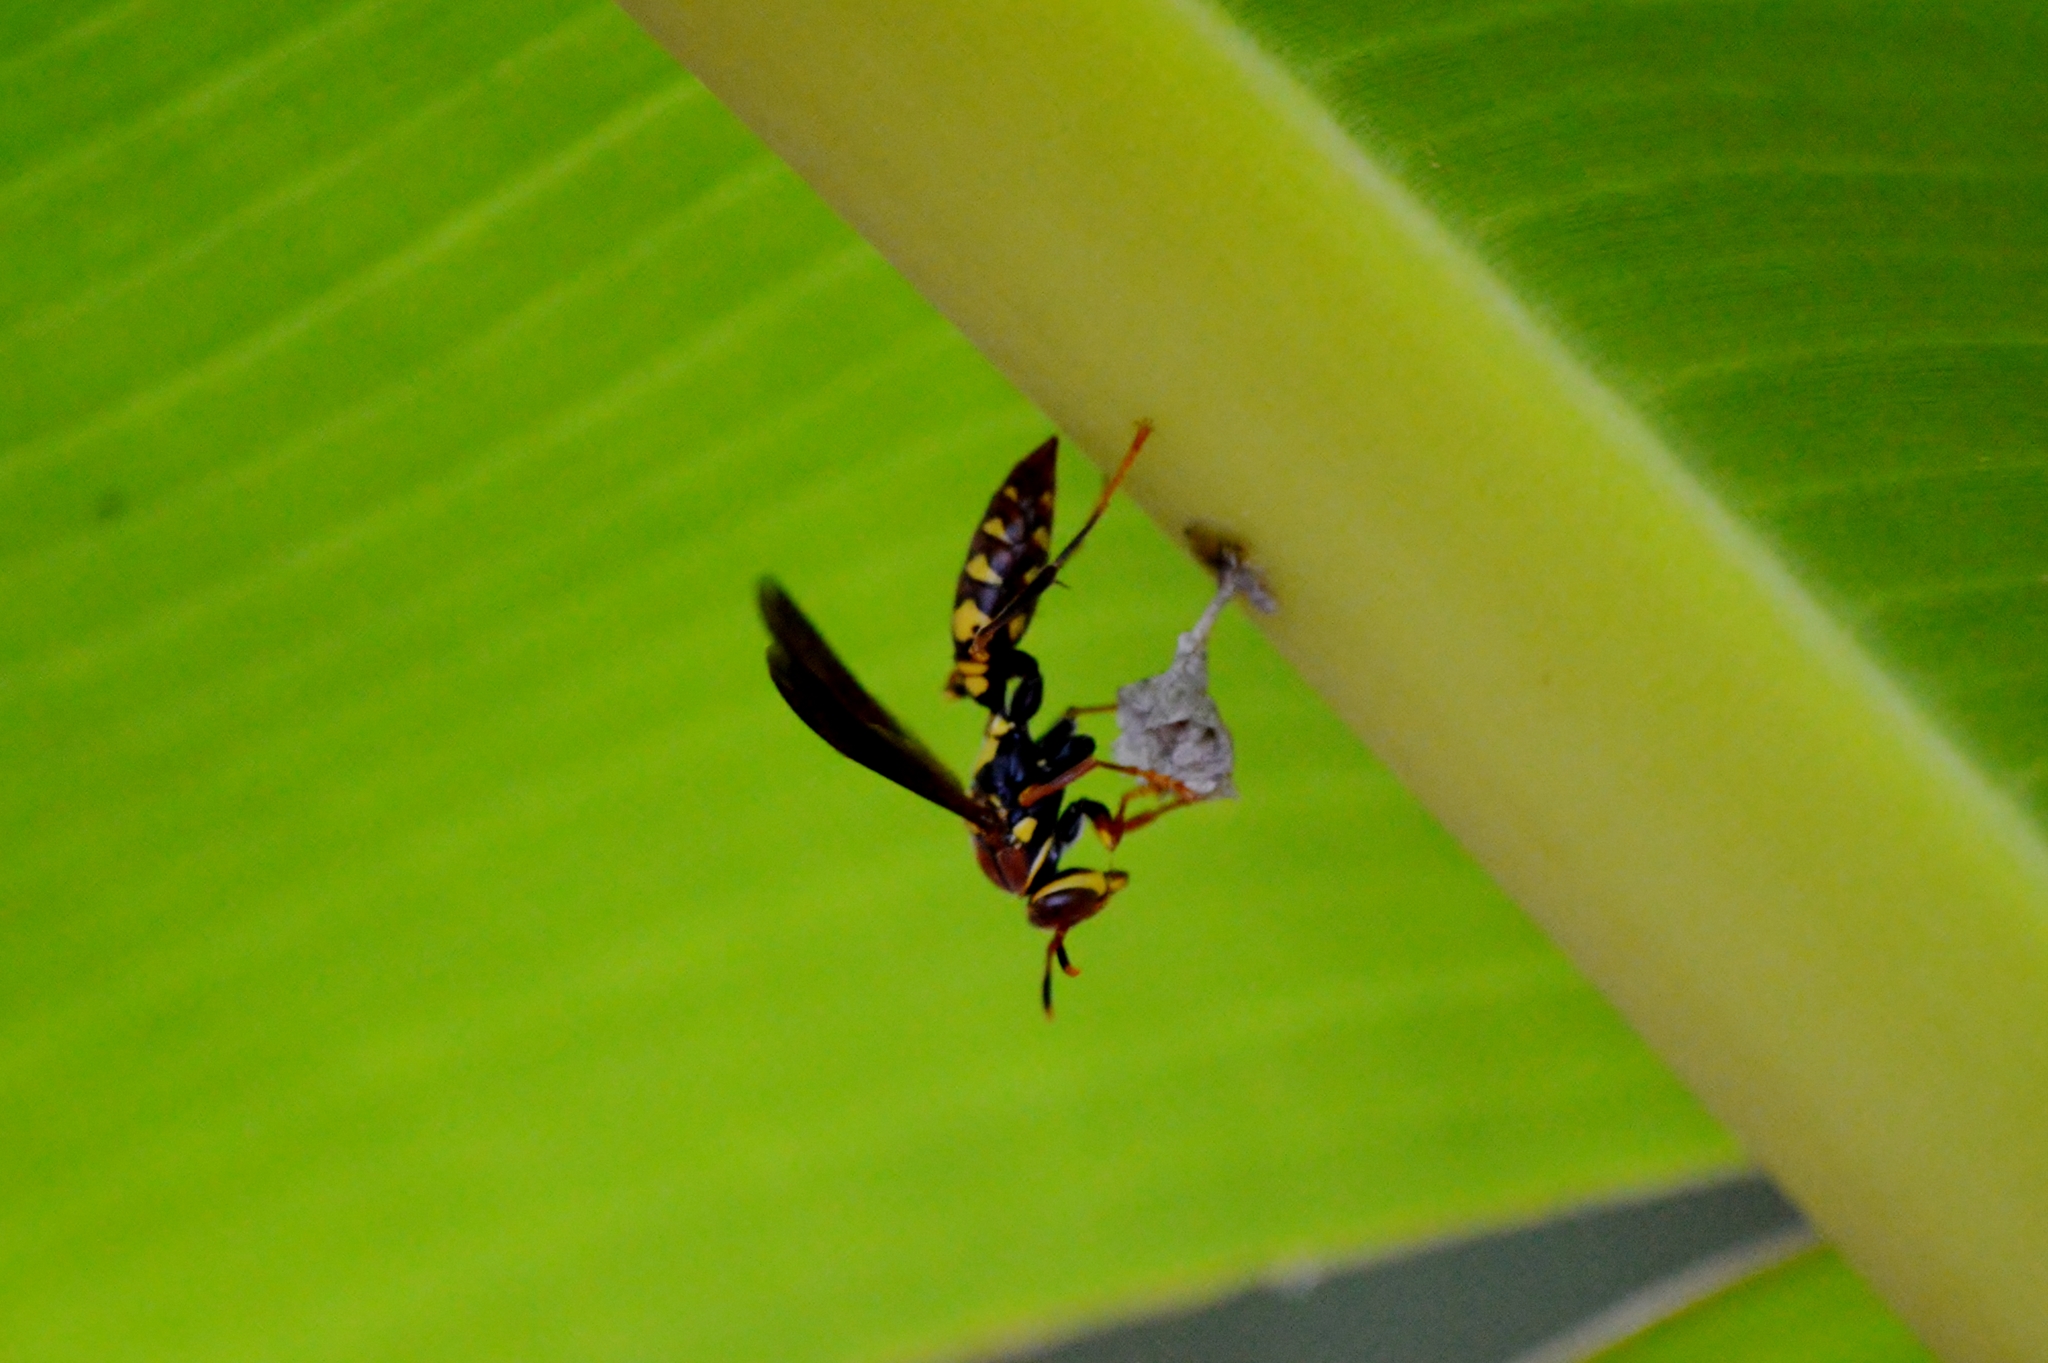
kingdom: Animalia
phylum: Arthropoda
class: Insecta
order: Hymenoptera
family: Eumenidae
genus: Polistes
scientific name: Polistes versicolor
